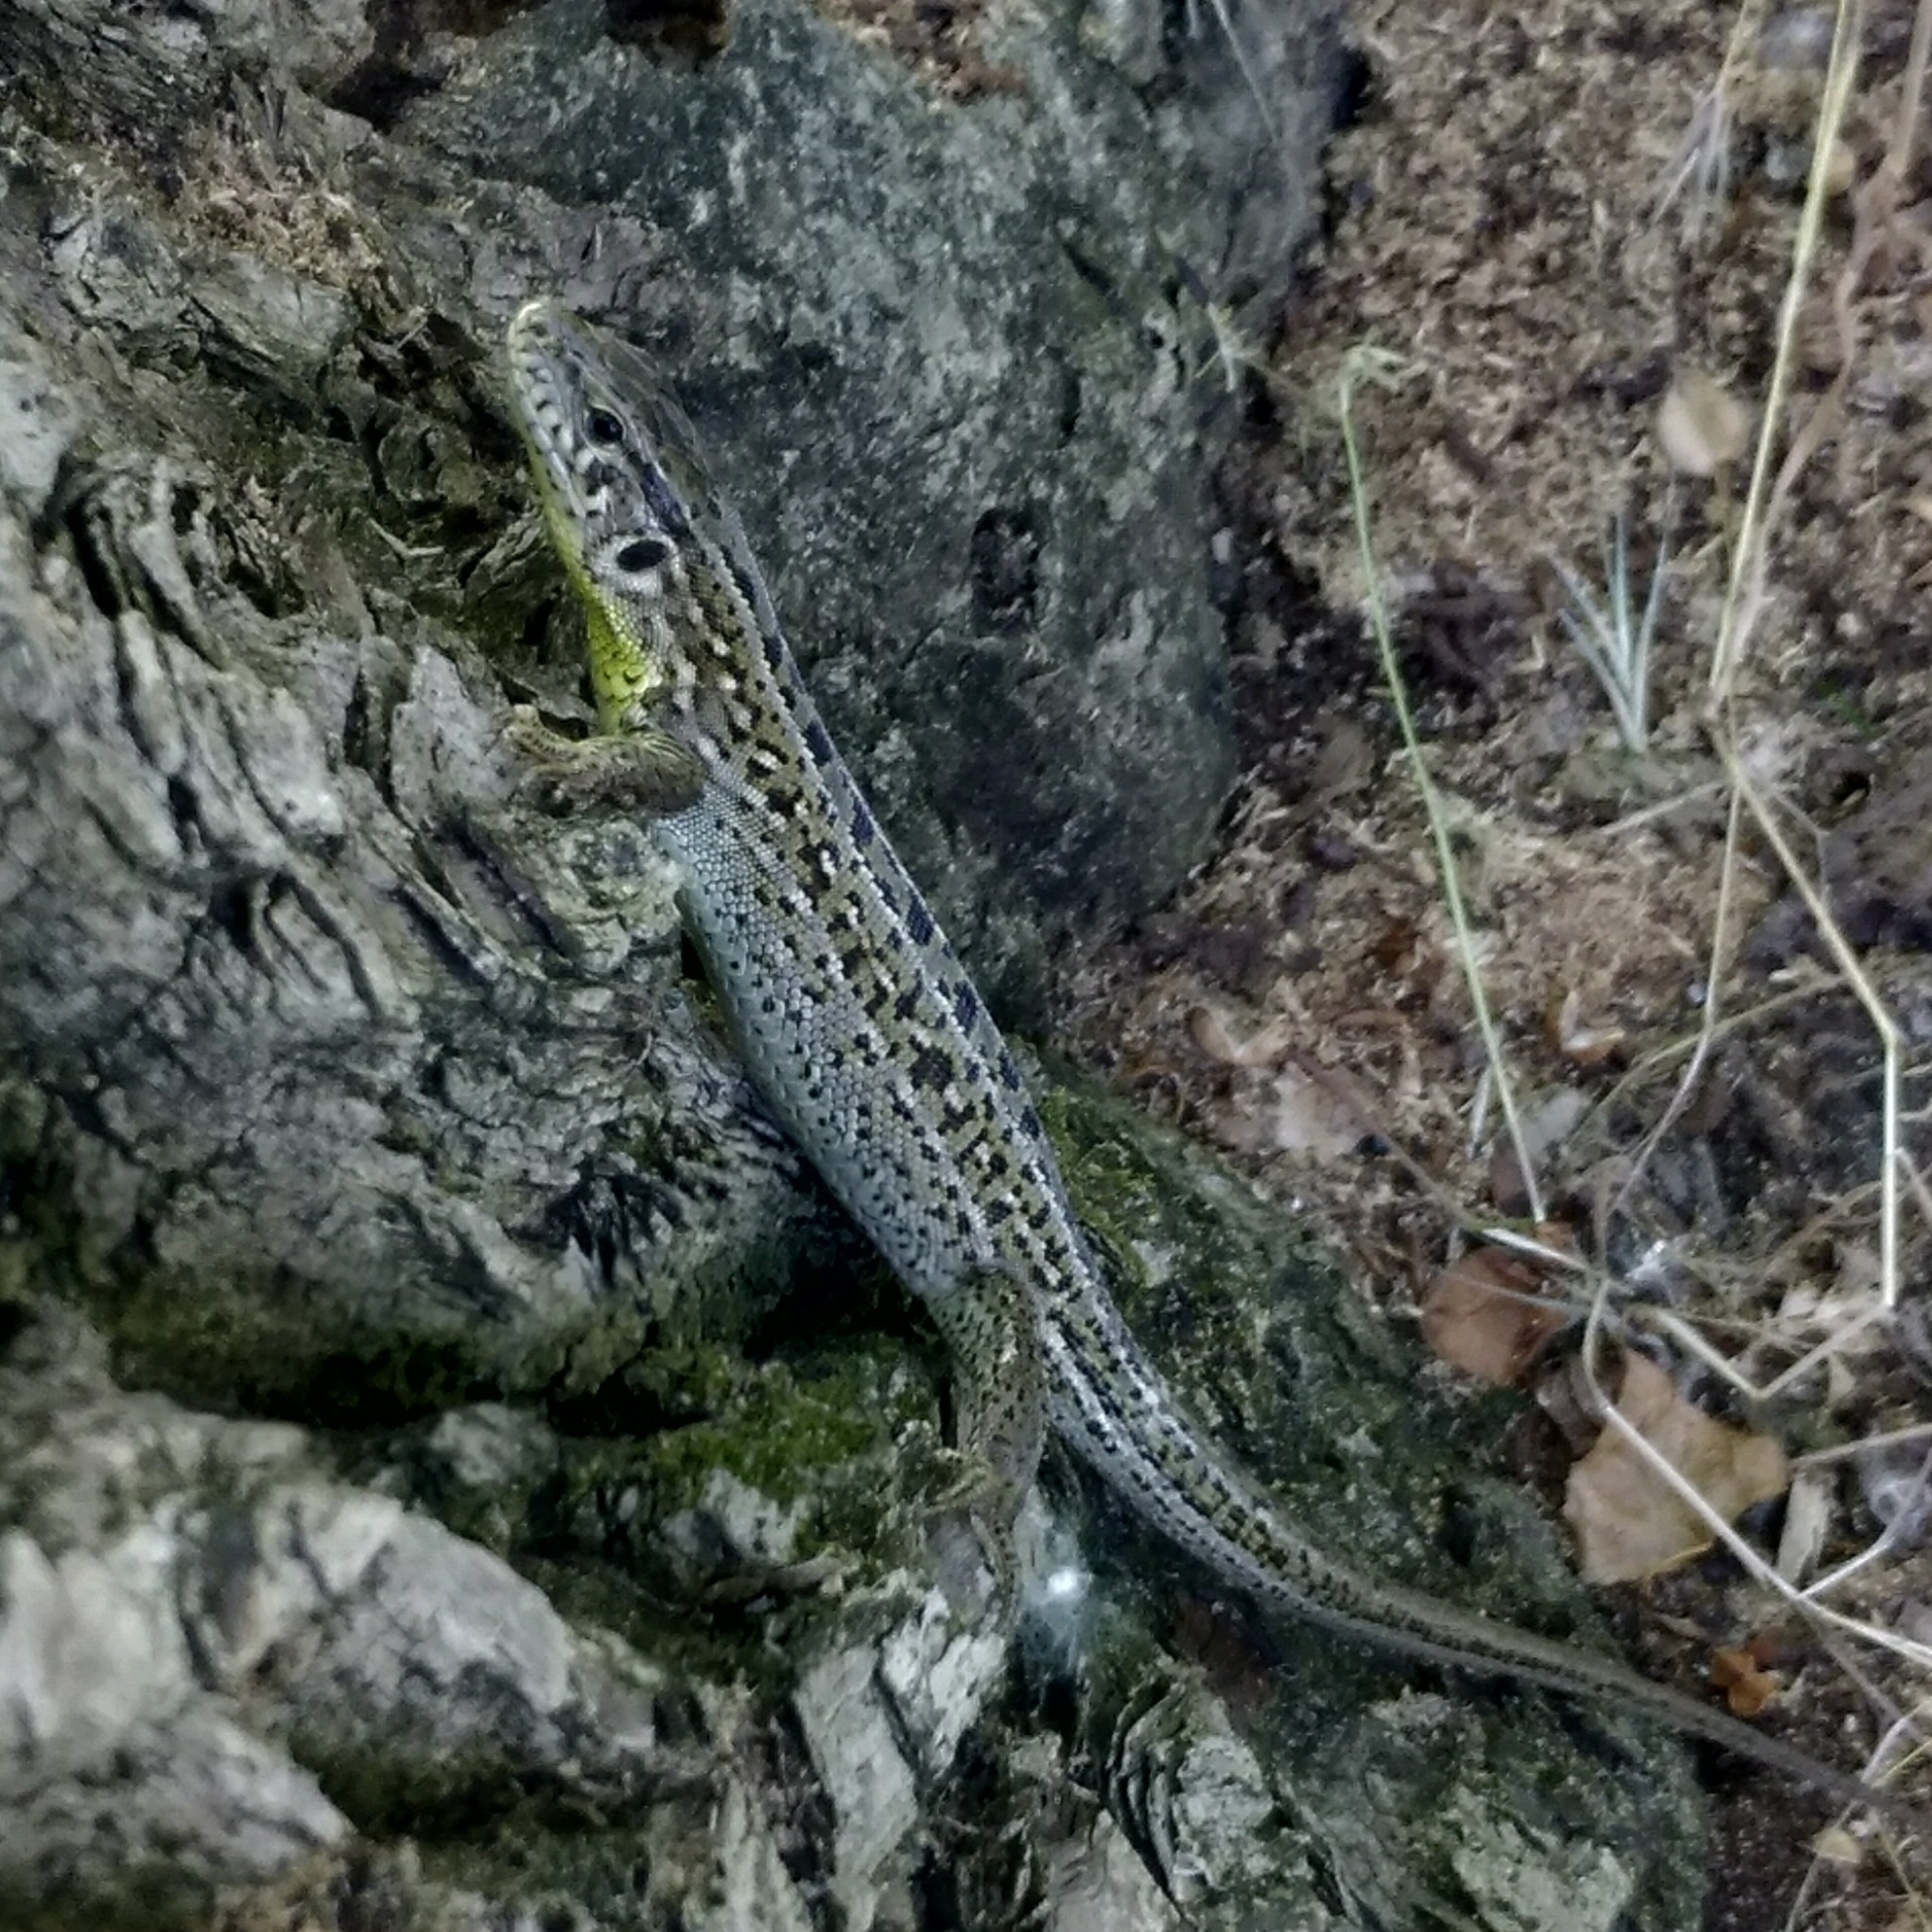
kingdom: Animalia
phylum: Chordata
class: Squamata
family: Lacertidae
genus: Lacerta
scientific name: Lacerta agilis
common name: Sand lizard
